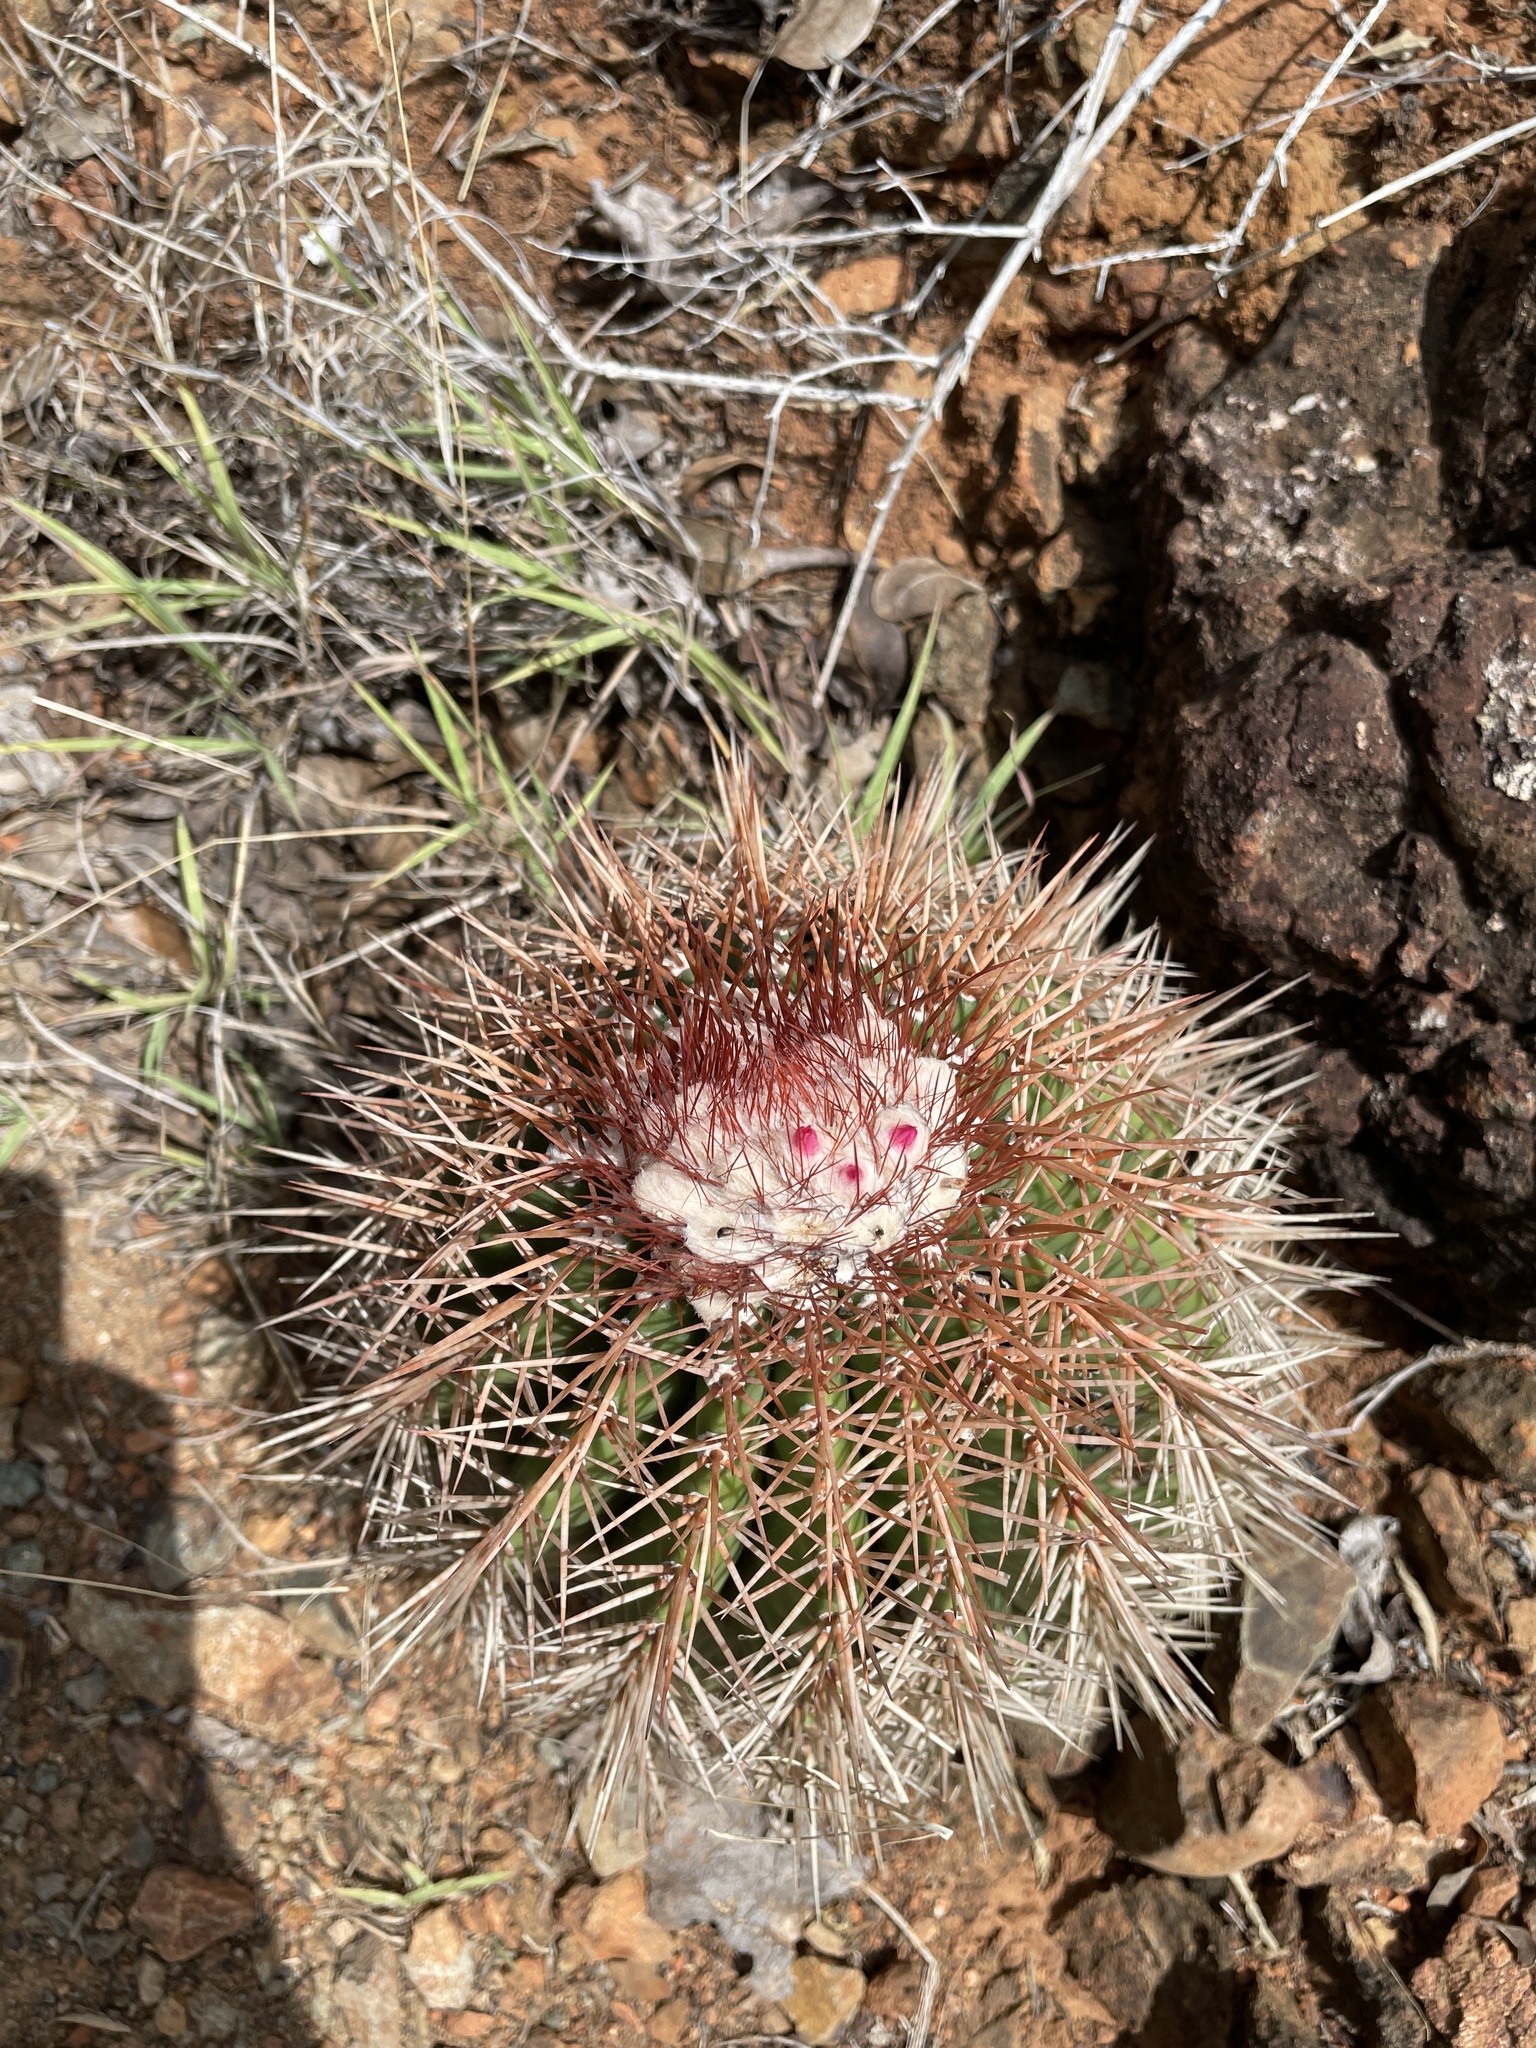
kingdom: Plantae
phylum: Tracheophyta
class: Magnoliopsida
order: Caryophyllales
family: Cactaceae
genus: Melocactus
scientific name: Melocactus intortus
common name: Barrel cactus
